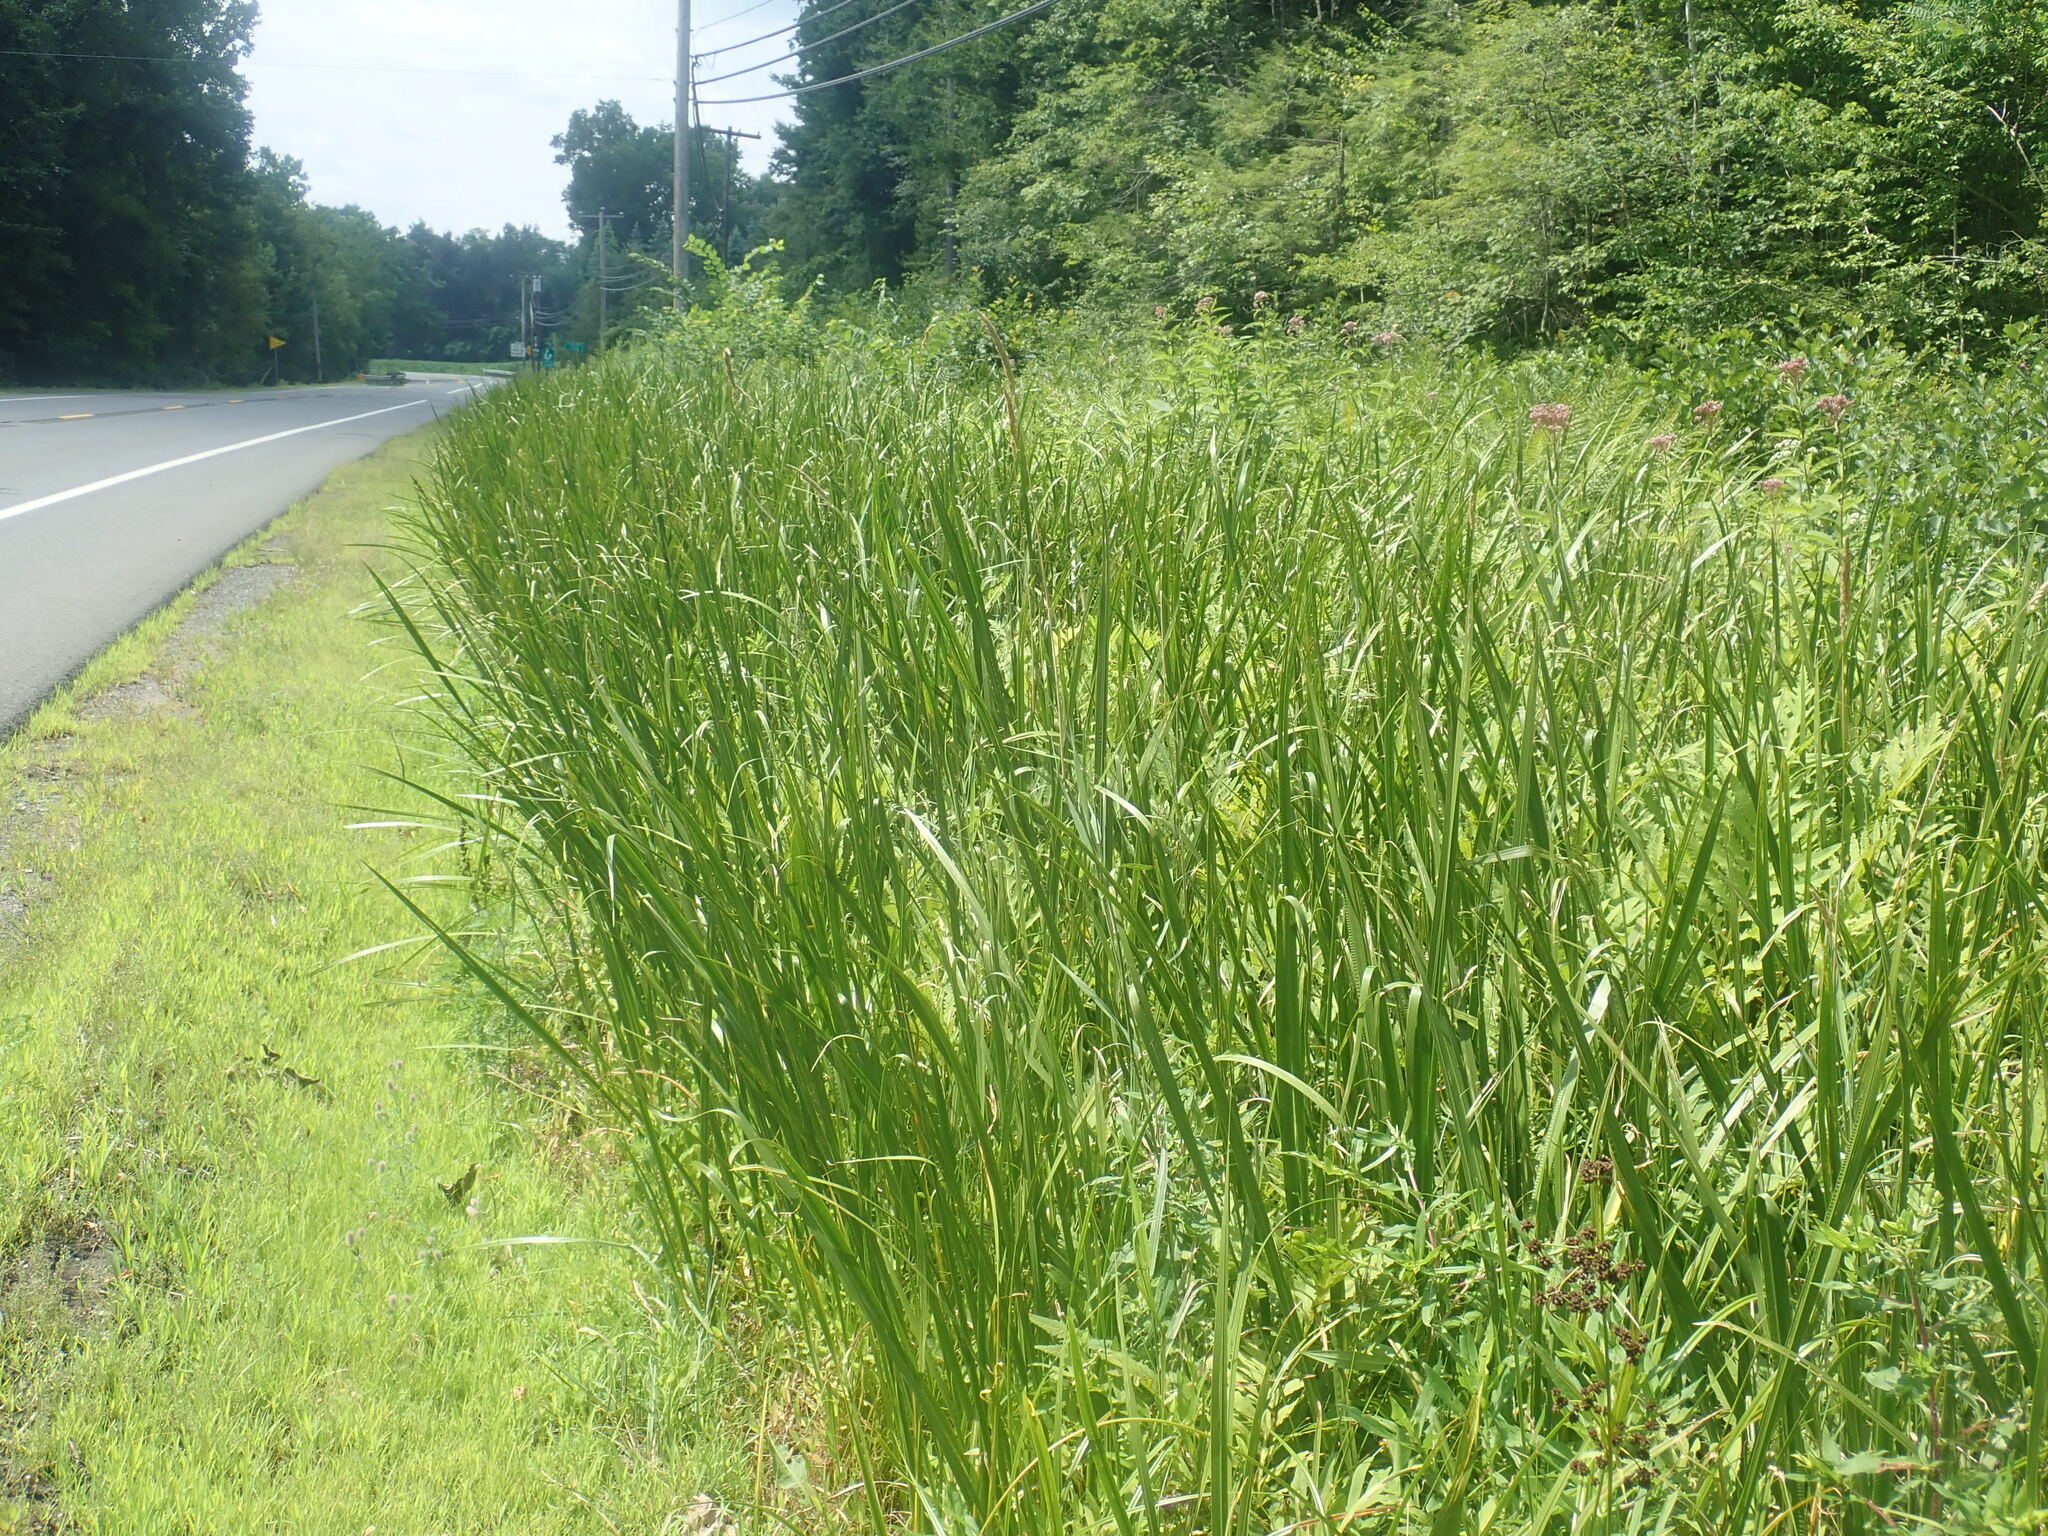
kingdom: Plantae
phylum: Tracheophyta
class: Liliopsida
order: Acorales
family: Acoraceae
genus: Acorus
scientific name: Acorus calamus
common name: Sweet-flag
